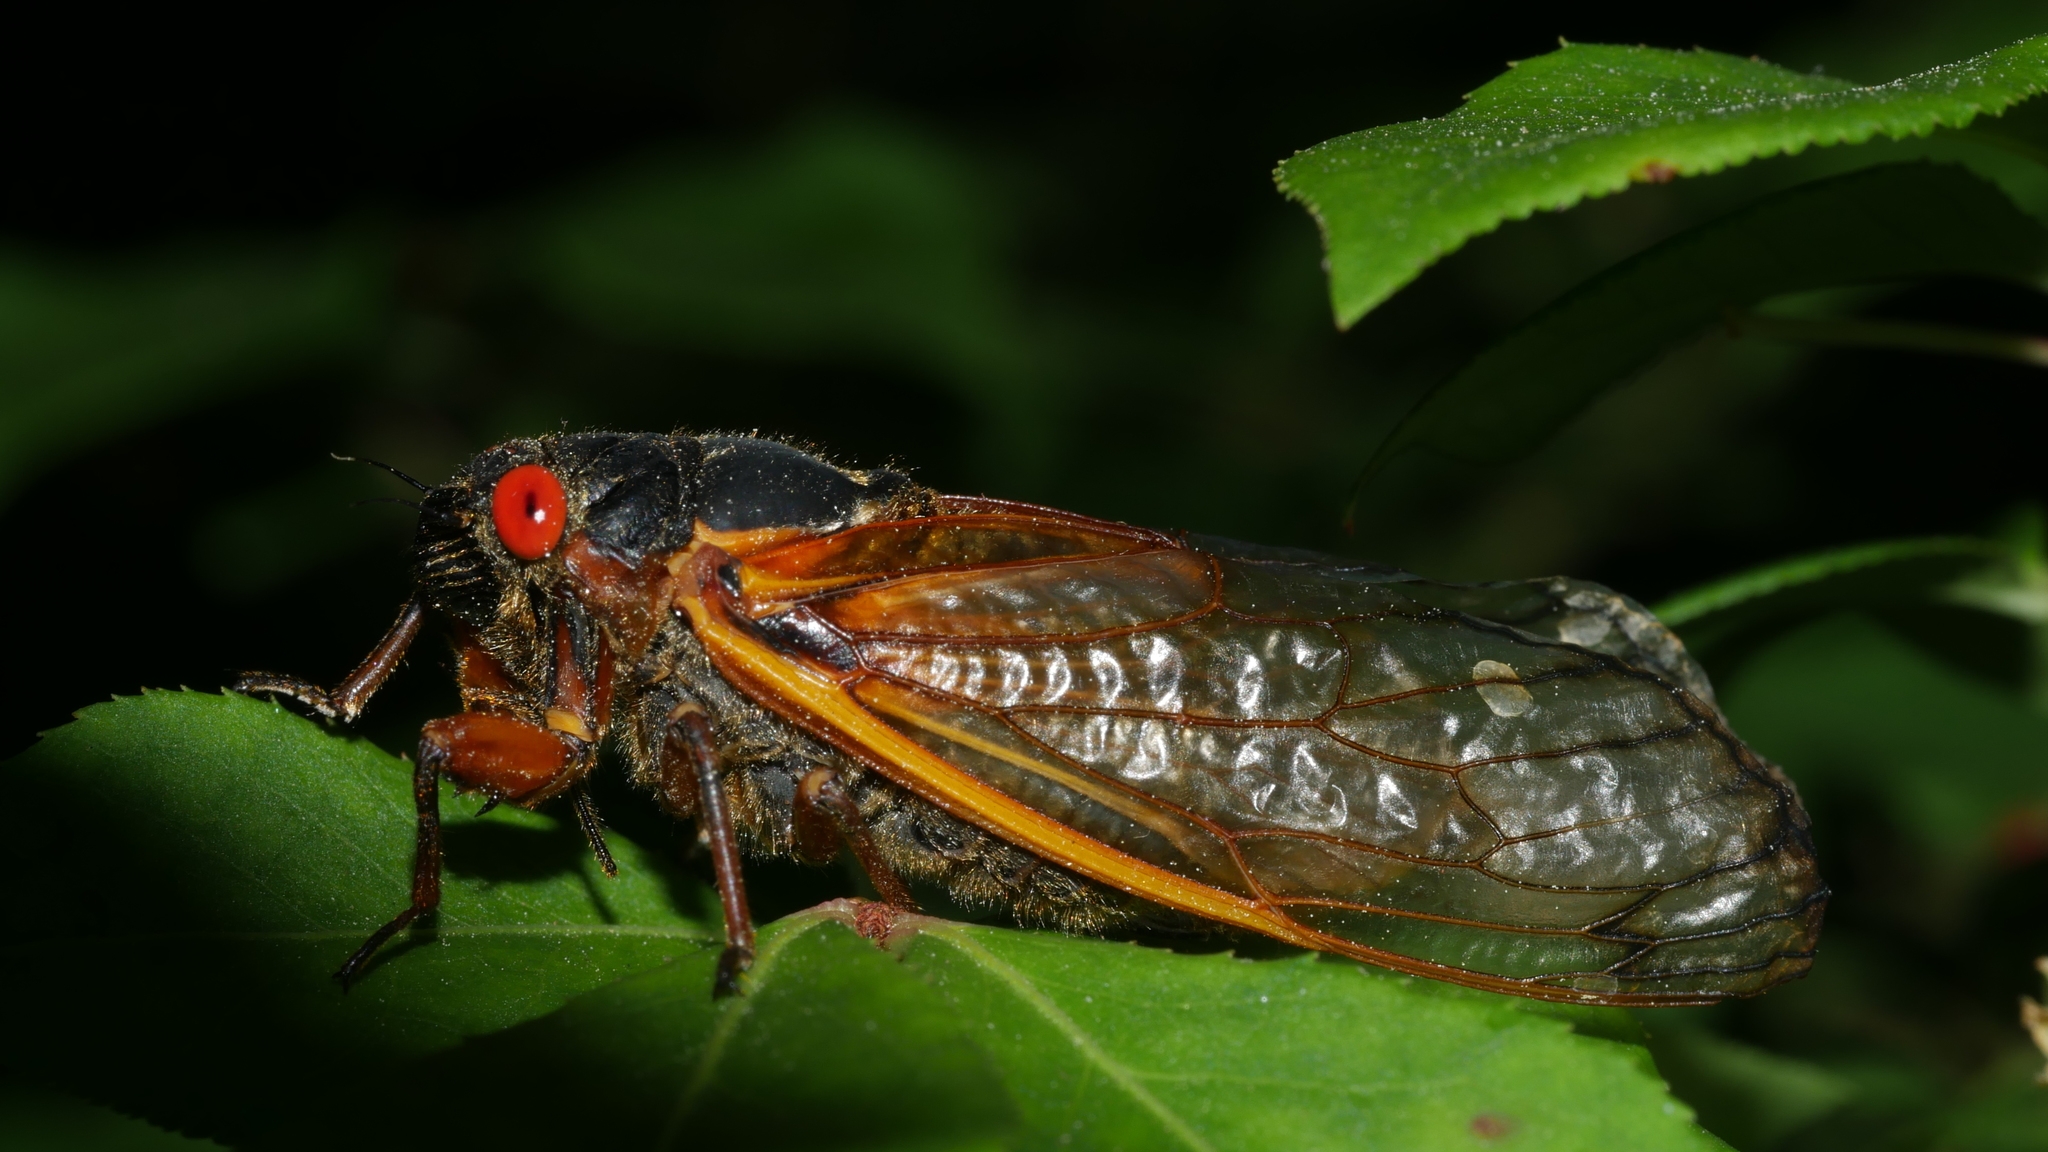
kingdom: Animalia
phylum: Arthropoda
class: Insecta
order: Hemiptera
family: Cicadidae
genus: Magicicada
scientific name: Magicicada septendecim
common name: Periodical cicada
